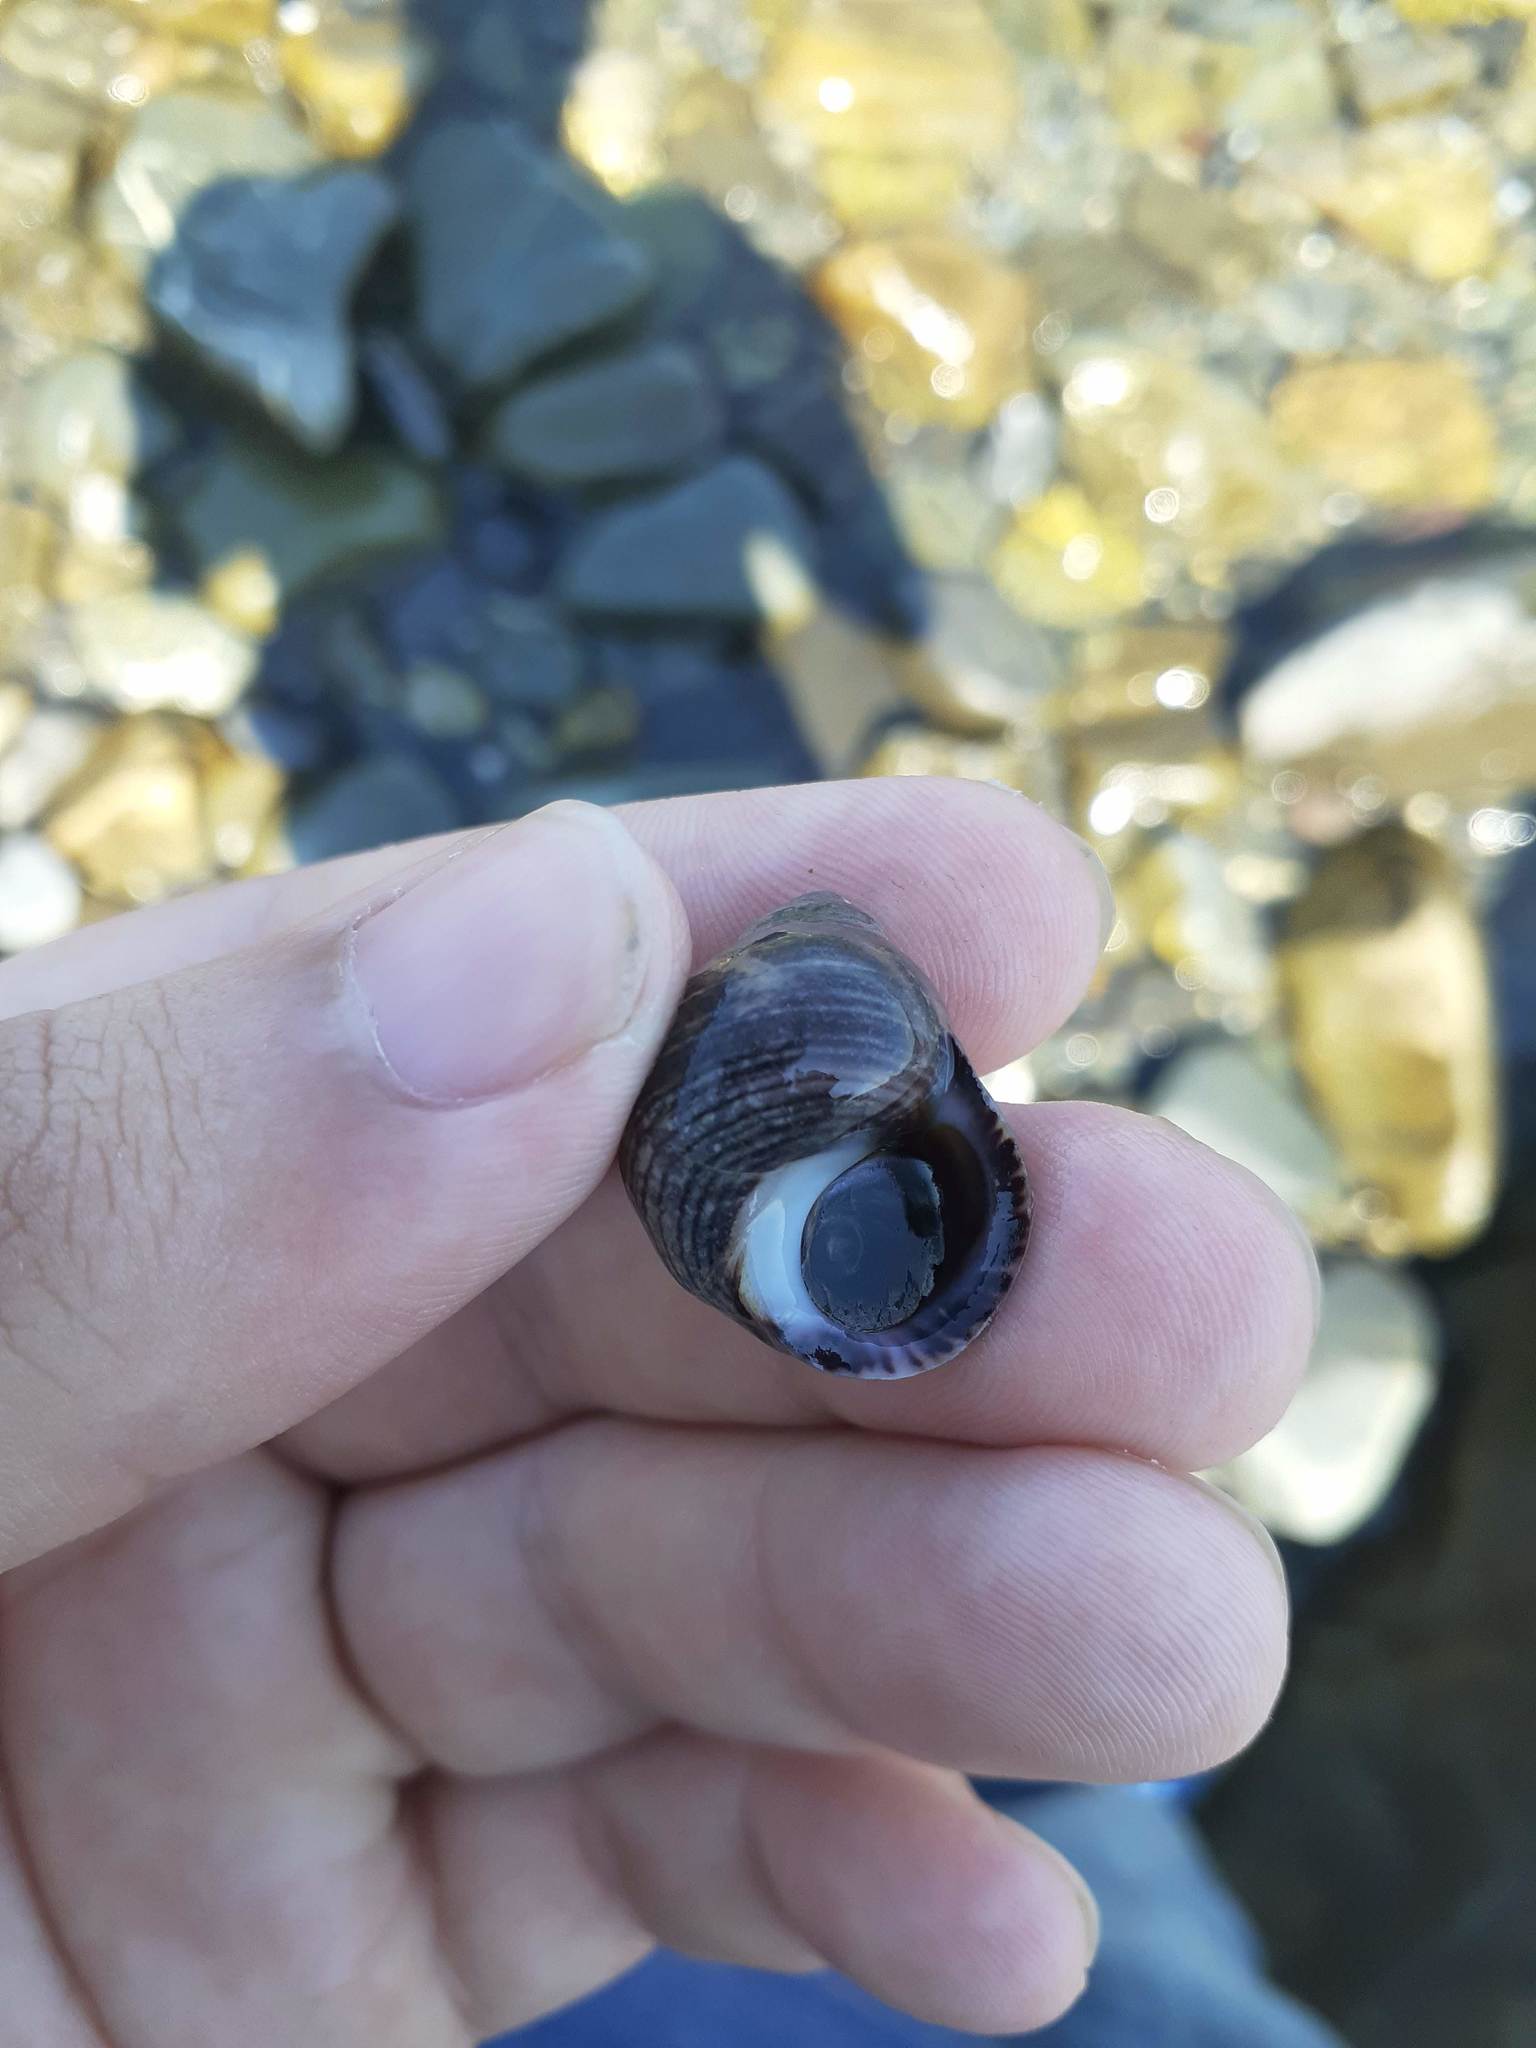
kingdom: Animalia
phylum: Mollusca
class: Gastropoda
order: Littorinimorpha
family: Littorinidae
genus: Littorina
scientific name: Littorina littorea
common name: Common periwinkle
